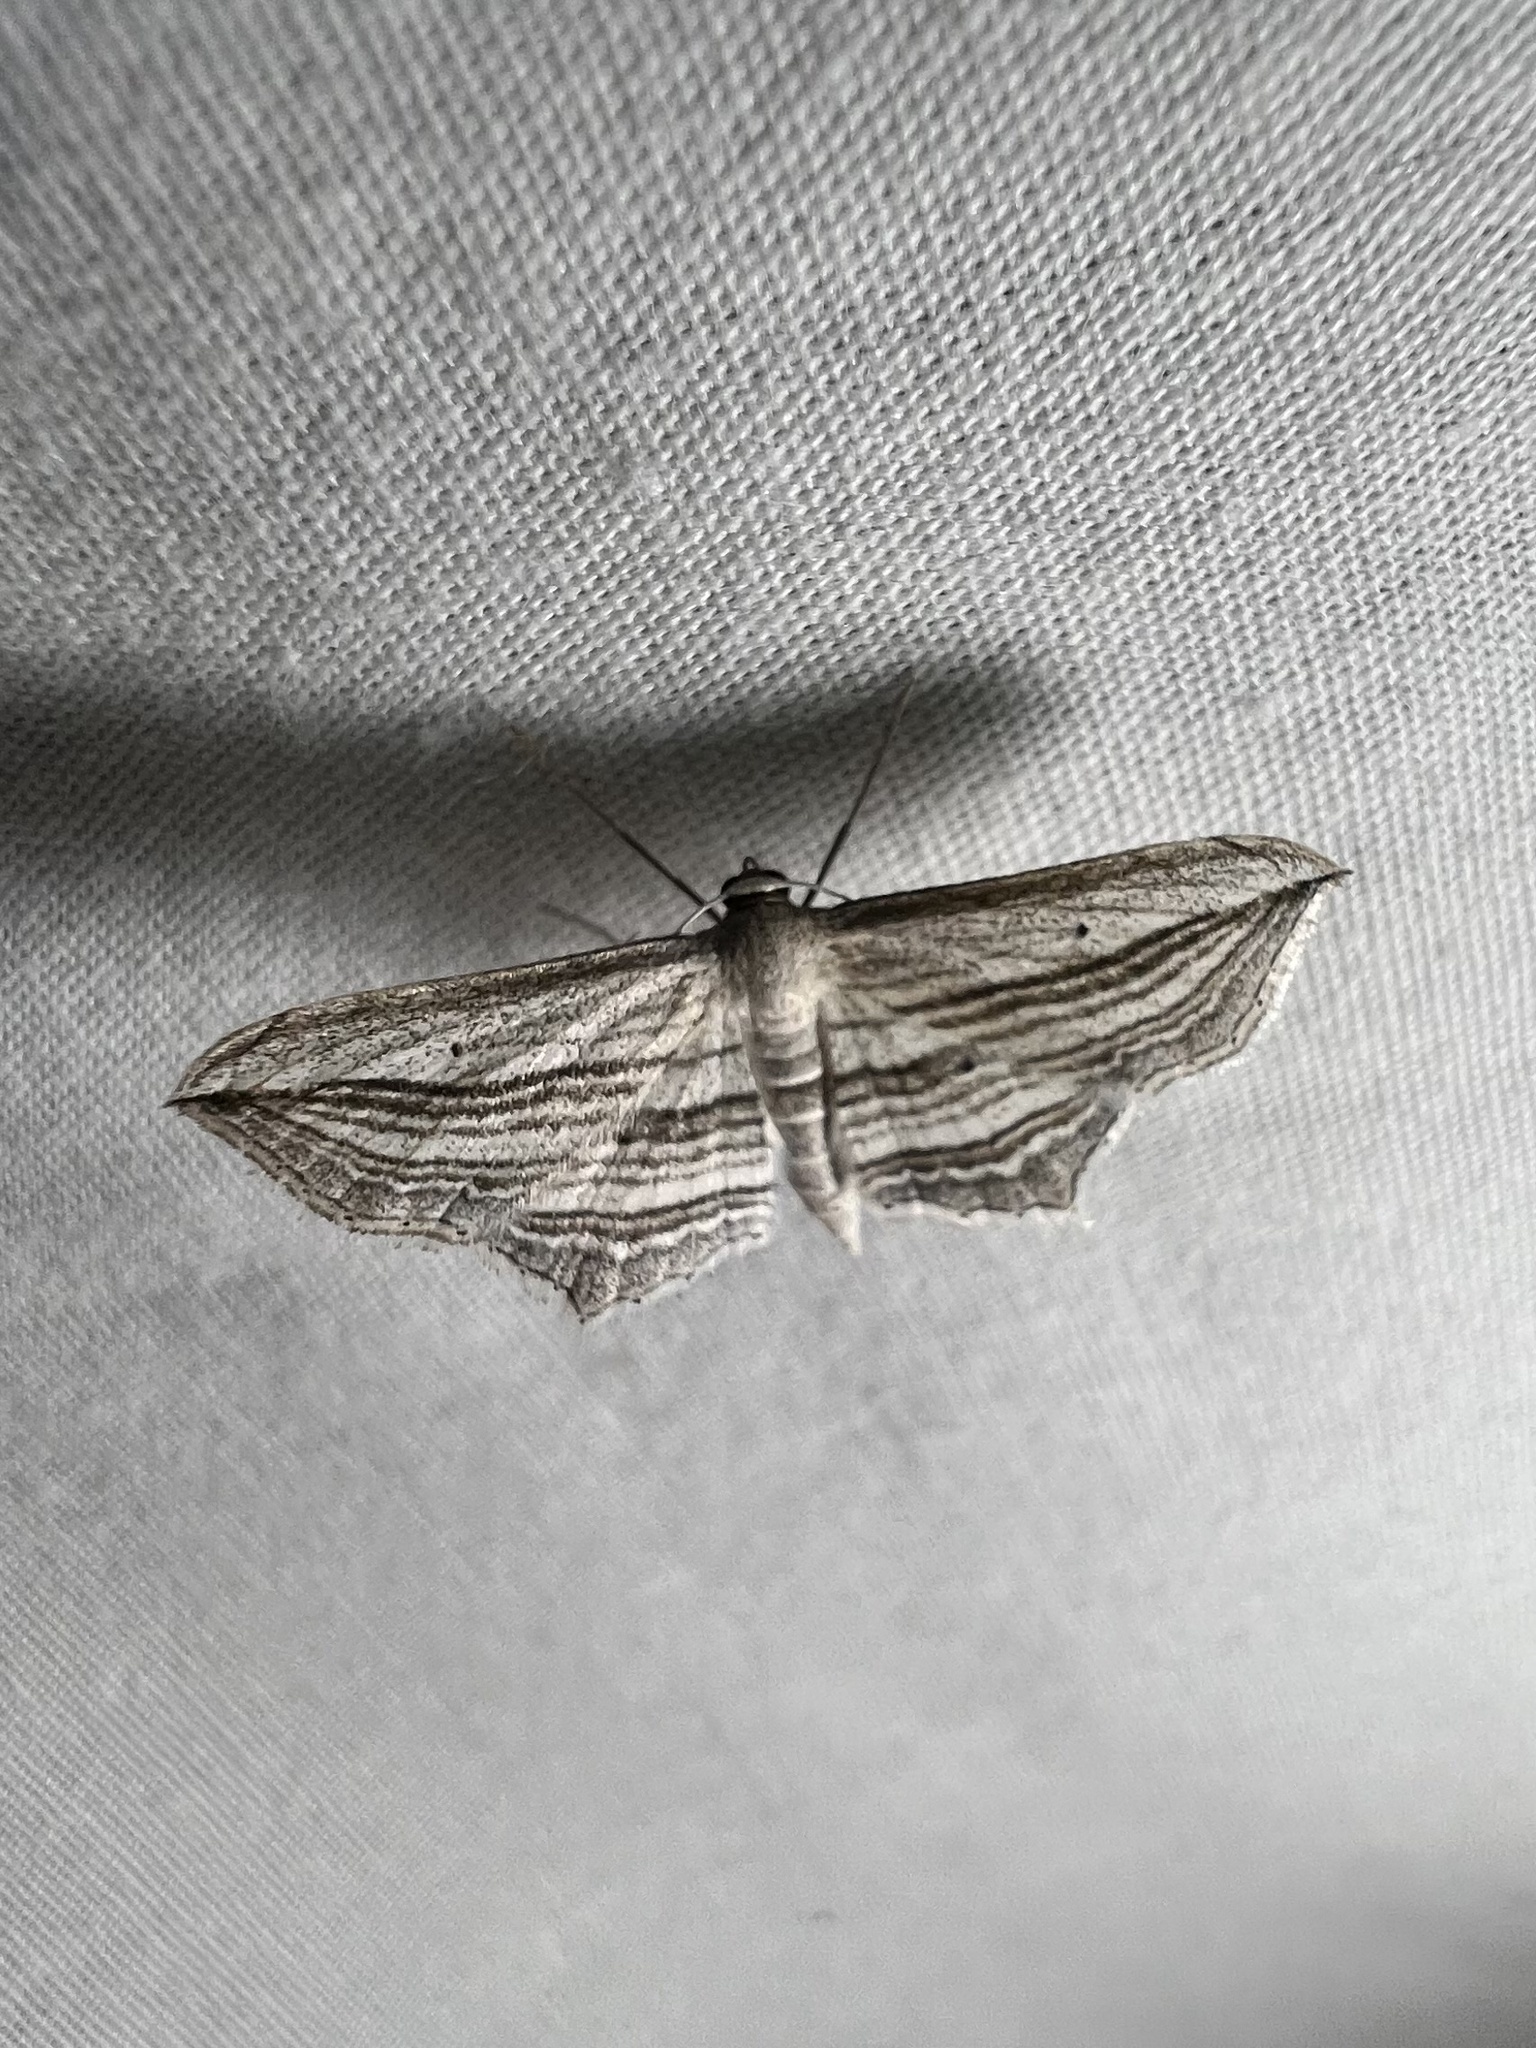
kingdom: Animalia
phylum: Arthropoda
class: Insecta
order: Lepidoptera
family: Geometridae
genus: Arcobara
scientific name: Arcobara multilineata
